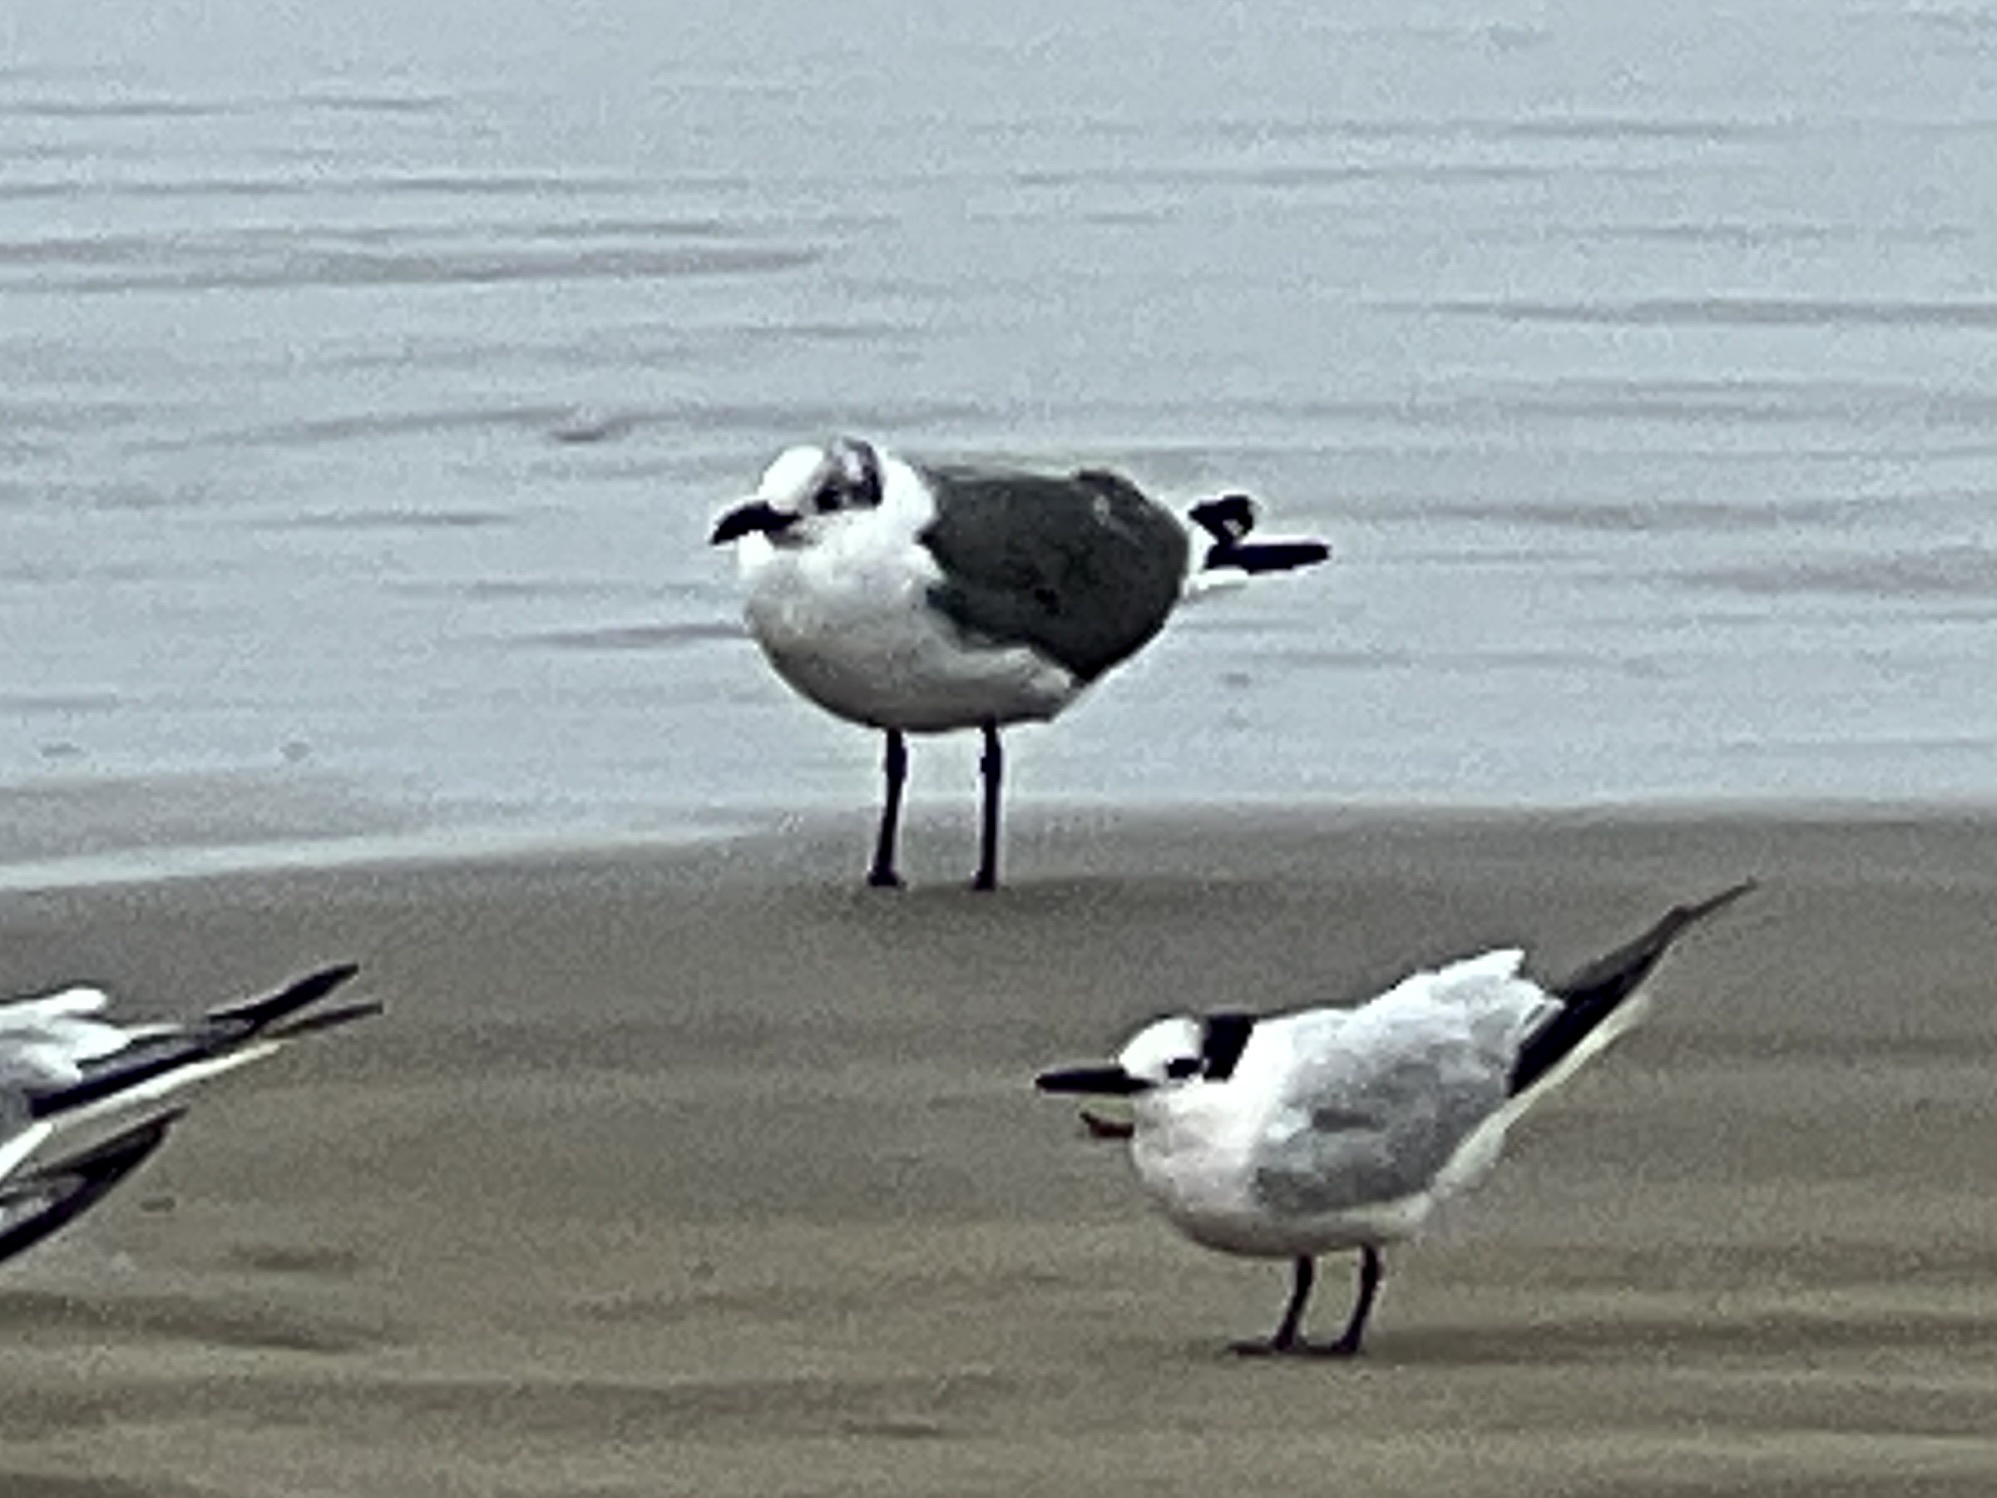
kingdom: Animalia
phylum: Chordata
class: Aves
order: Charadriiformes
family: Laridae
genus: Leucophaeus
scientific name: Leucophaeus atricilla
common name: Laughing gull
